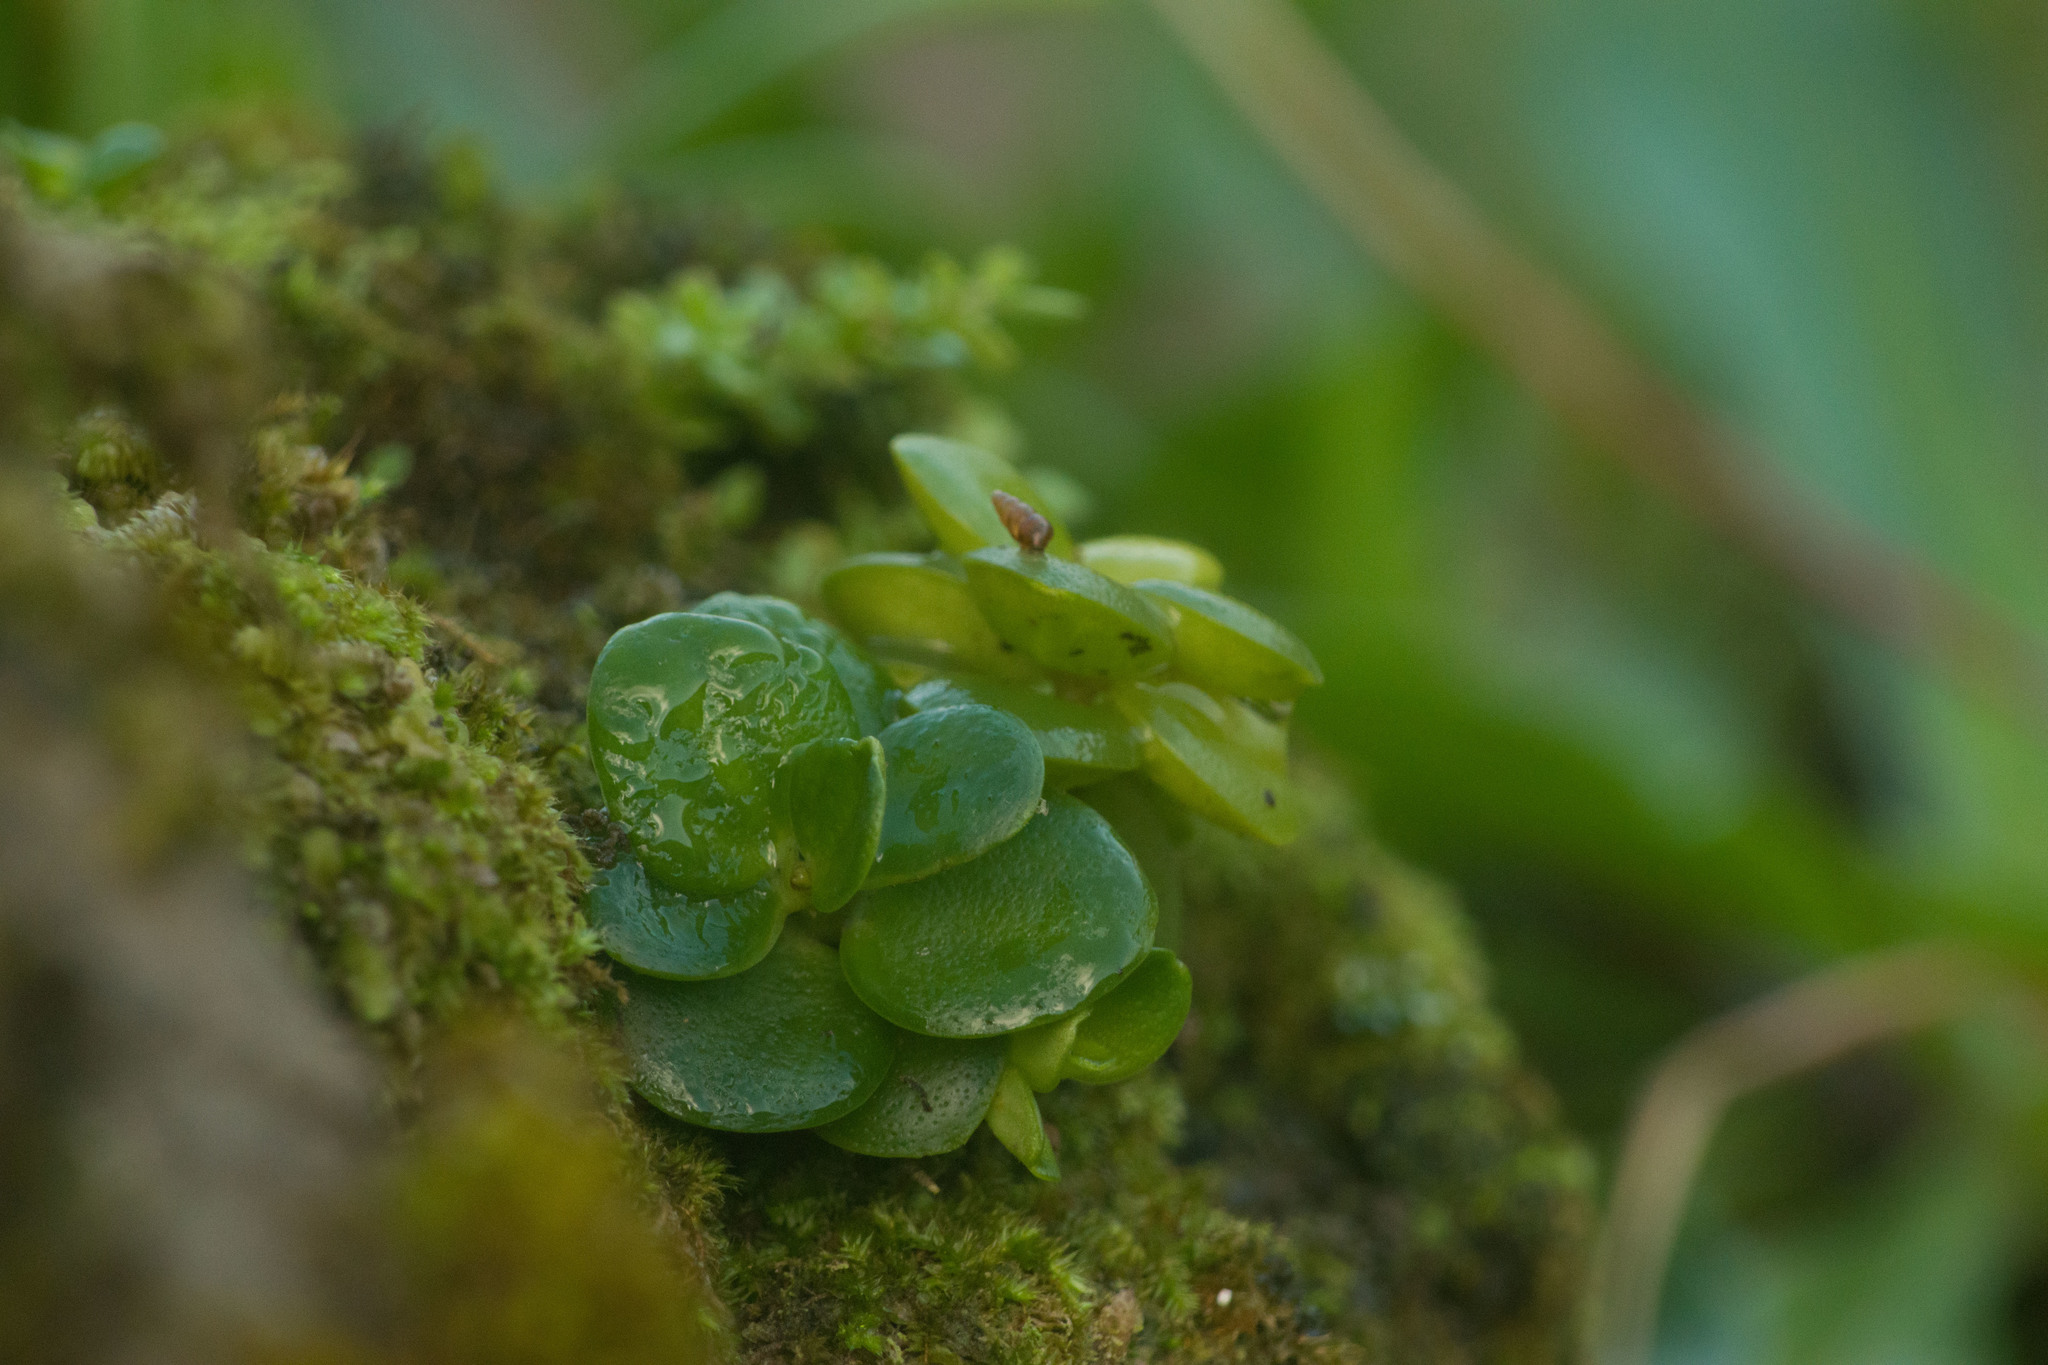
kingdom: Plantae
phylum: Tracheophyta
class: Magnoliopsida
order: Piperales
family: Piperaceae
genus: Peperomia
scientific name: Peperomia tetraphylla
